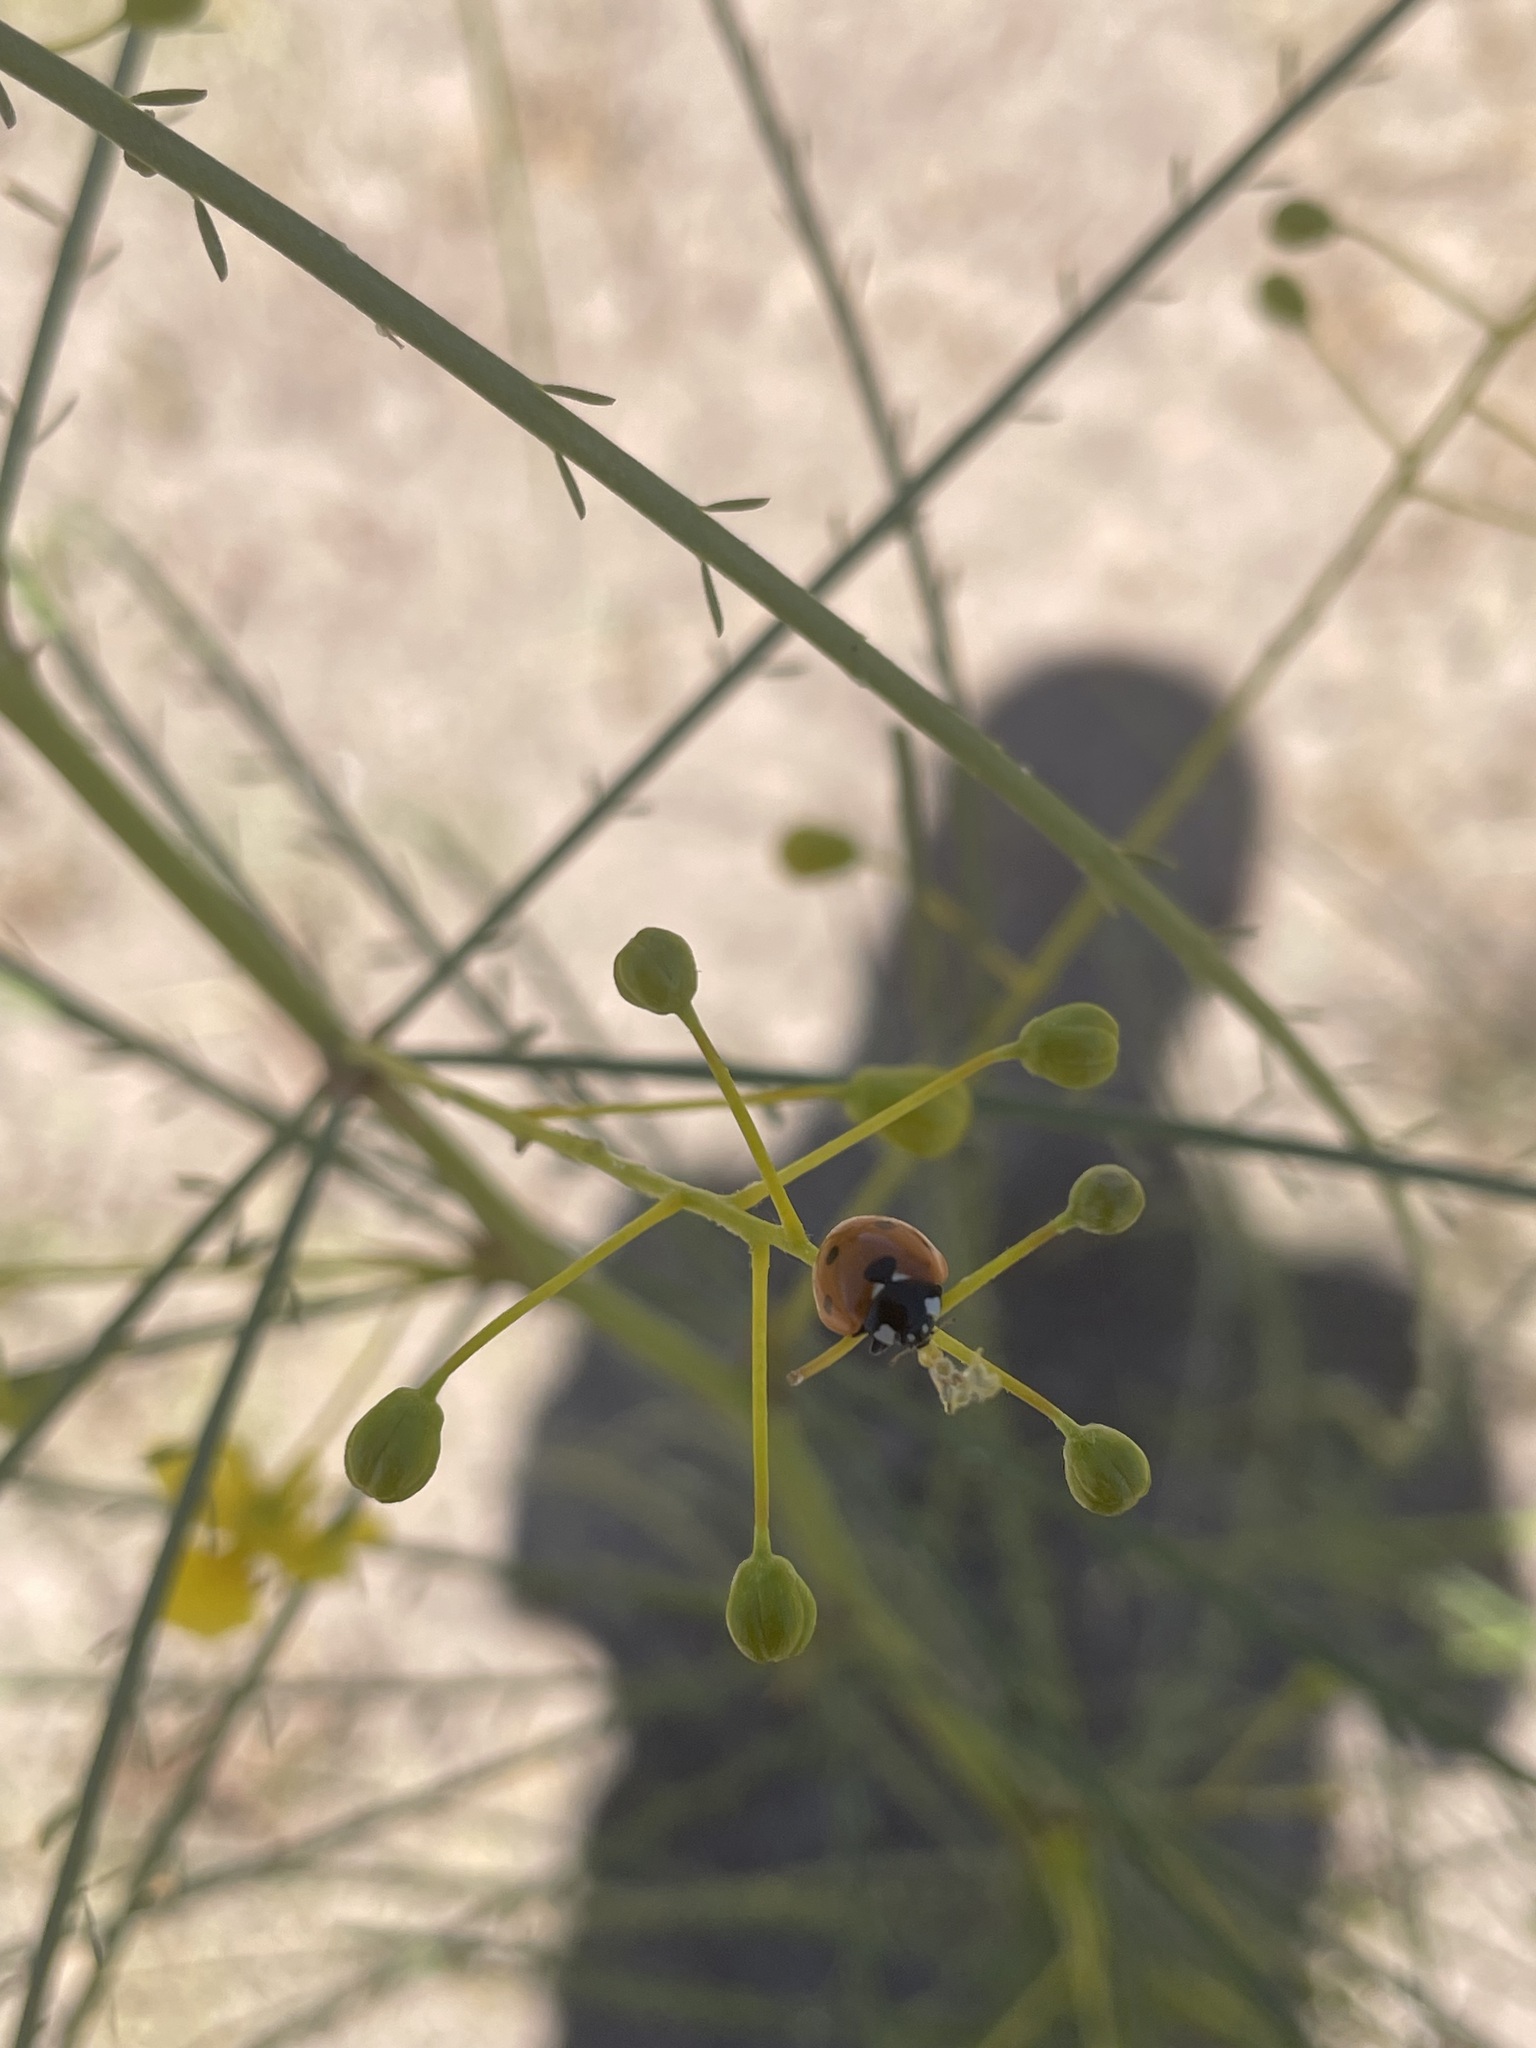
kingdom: Animalia
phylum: Arthropoda
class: Insecta
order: Coleoptera
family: Coccinellidae
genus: Coccinella
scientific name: Coccinella septempunctata
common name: Sevenspotted lady beetle
